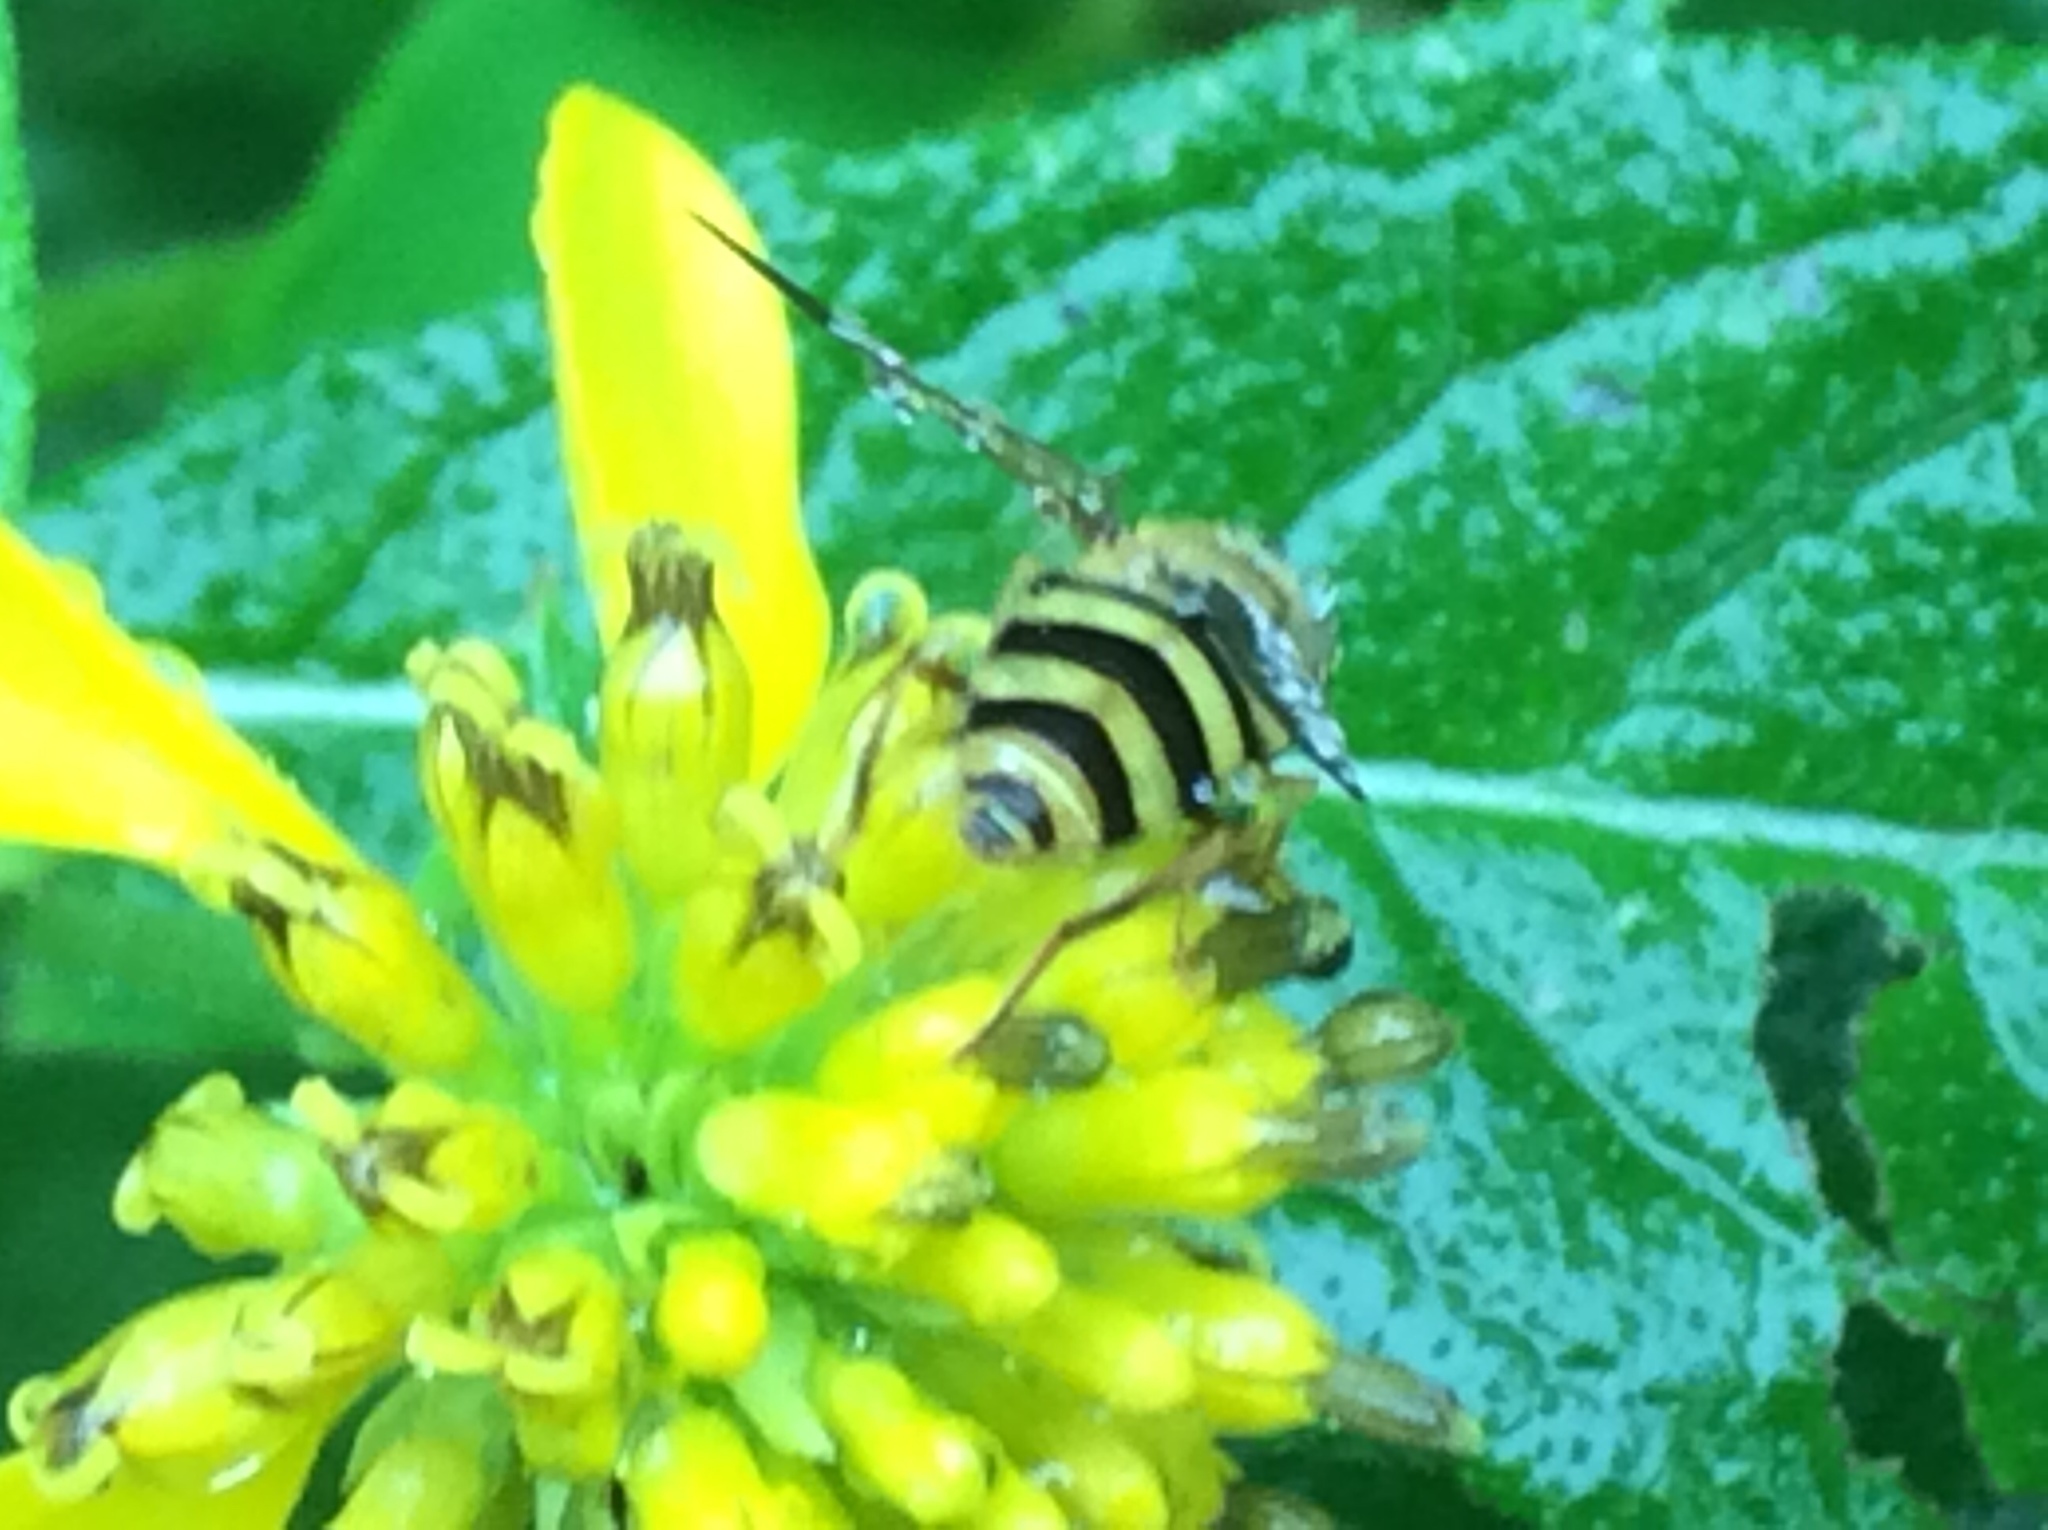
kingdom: Animalia
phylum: Arthropoda
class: Insecta
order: Diptera
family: Syrphidae
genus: Syrphus
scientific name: Syrphus knabi
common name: Eastern flower fly
